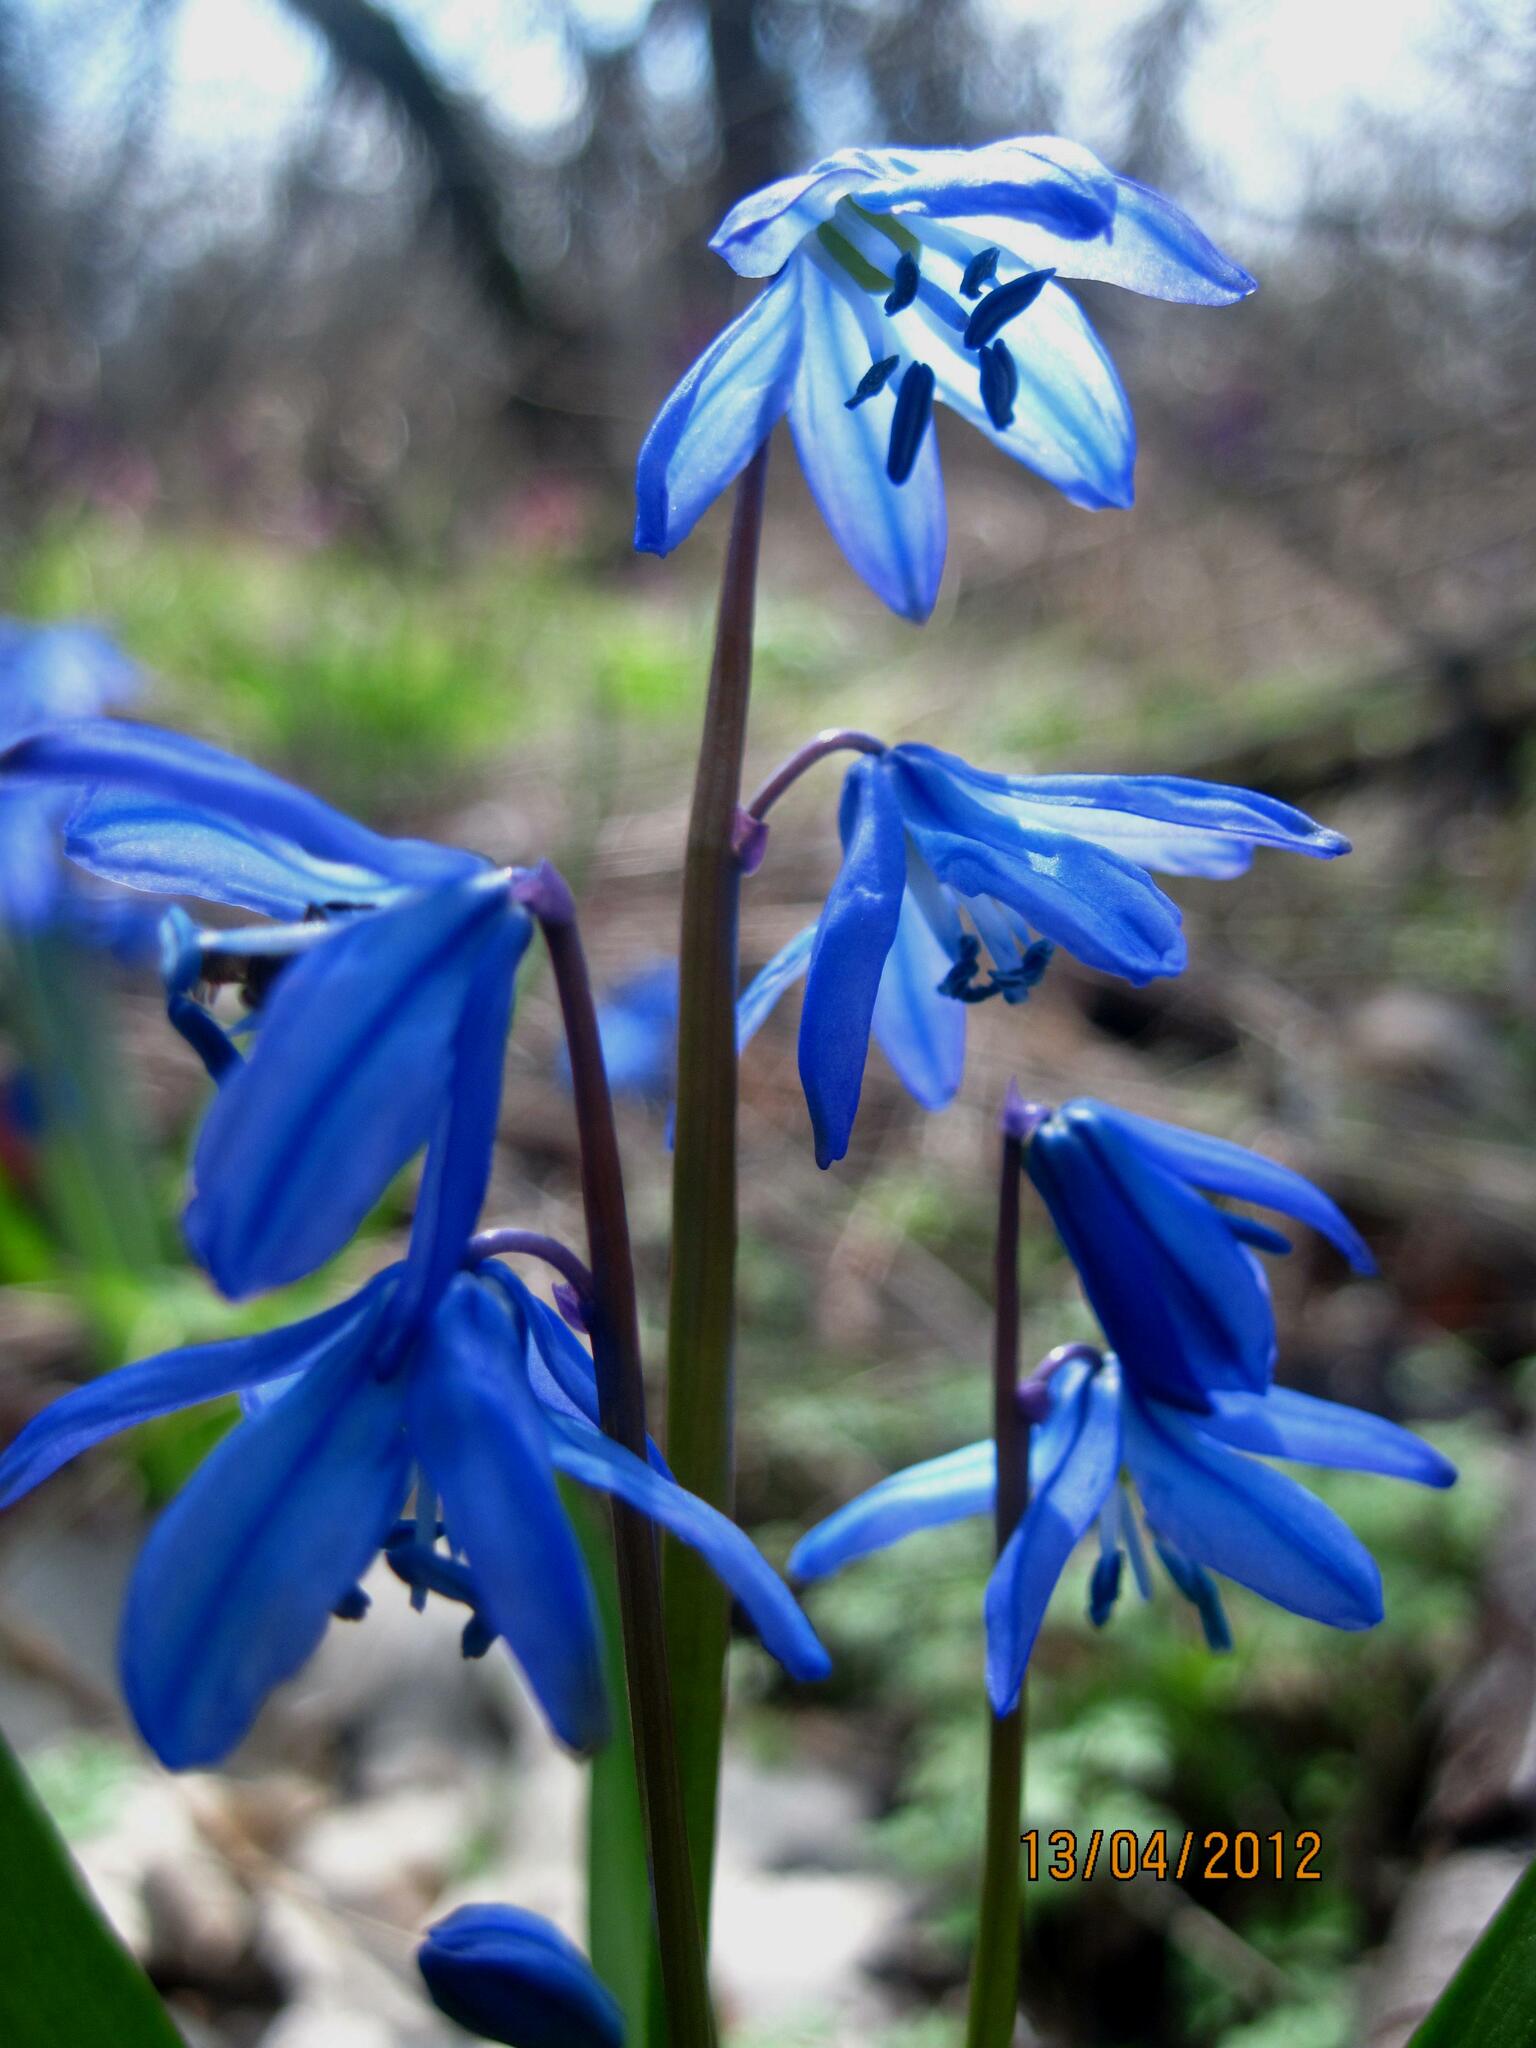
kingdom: Plantae
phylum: Tracheophyta
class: Liliopsida
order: Asparagales
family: Asparagaceae
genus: Scilla
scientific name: Scilla siberica
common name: Siberian squill
